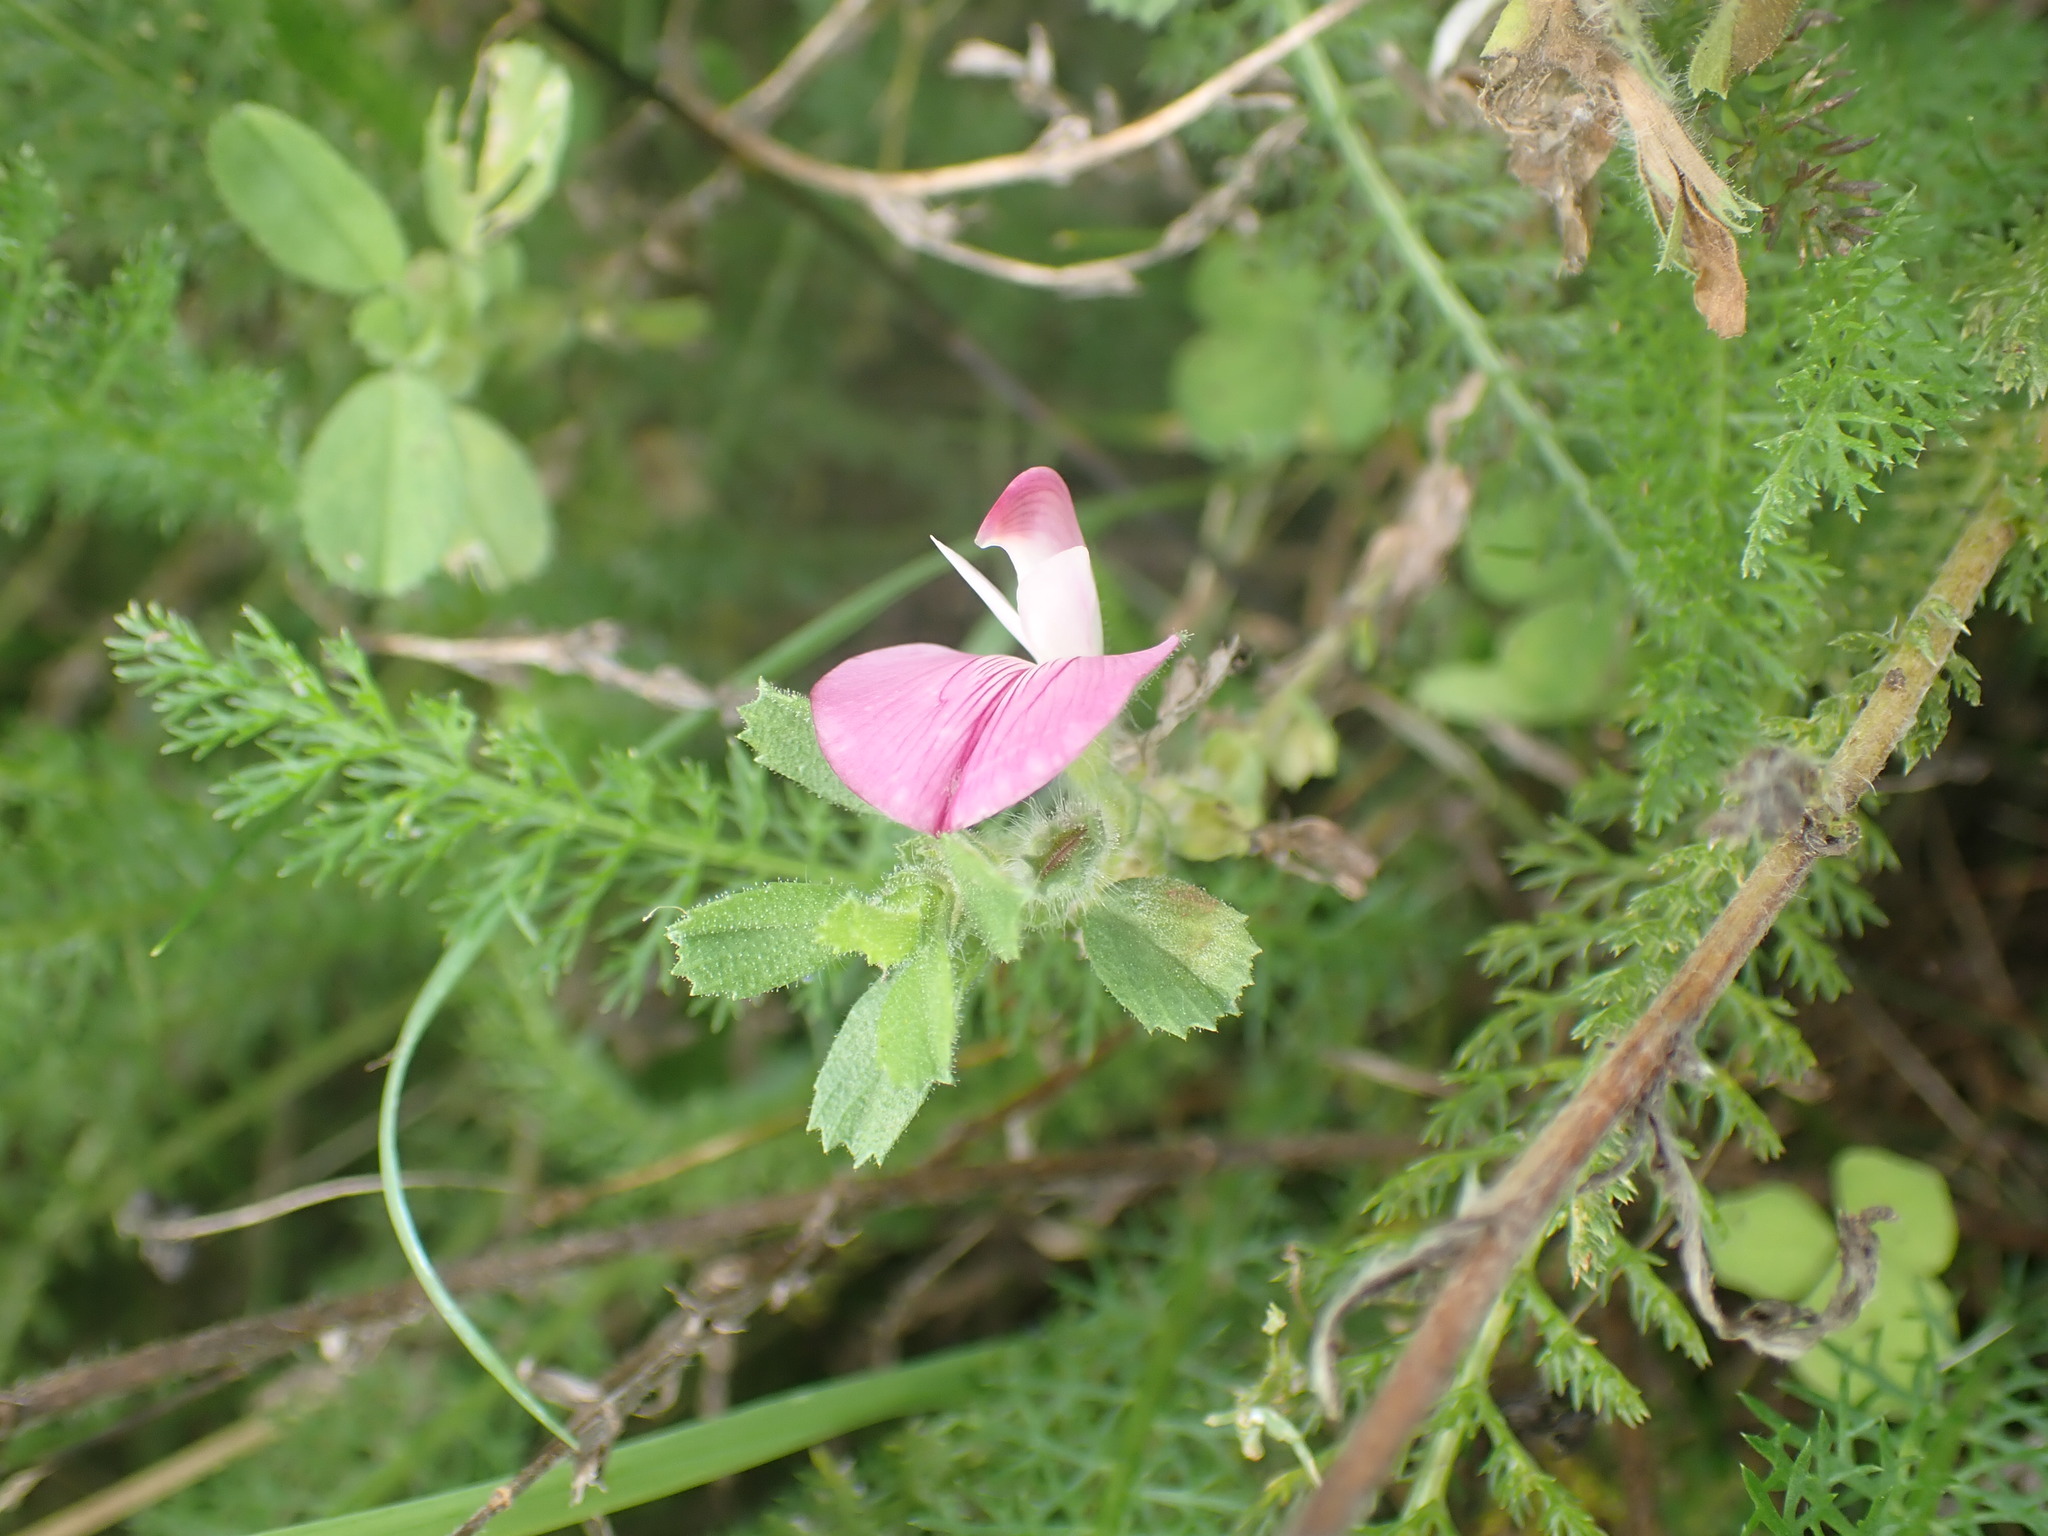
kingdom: Plantae
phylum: Tracheophyta
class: Magnoliopsida
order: Fabales
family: Fabaceae
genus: Ononis
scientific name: Ononis spinosa
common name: Spiny restharrow
